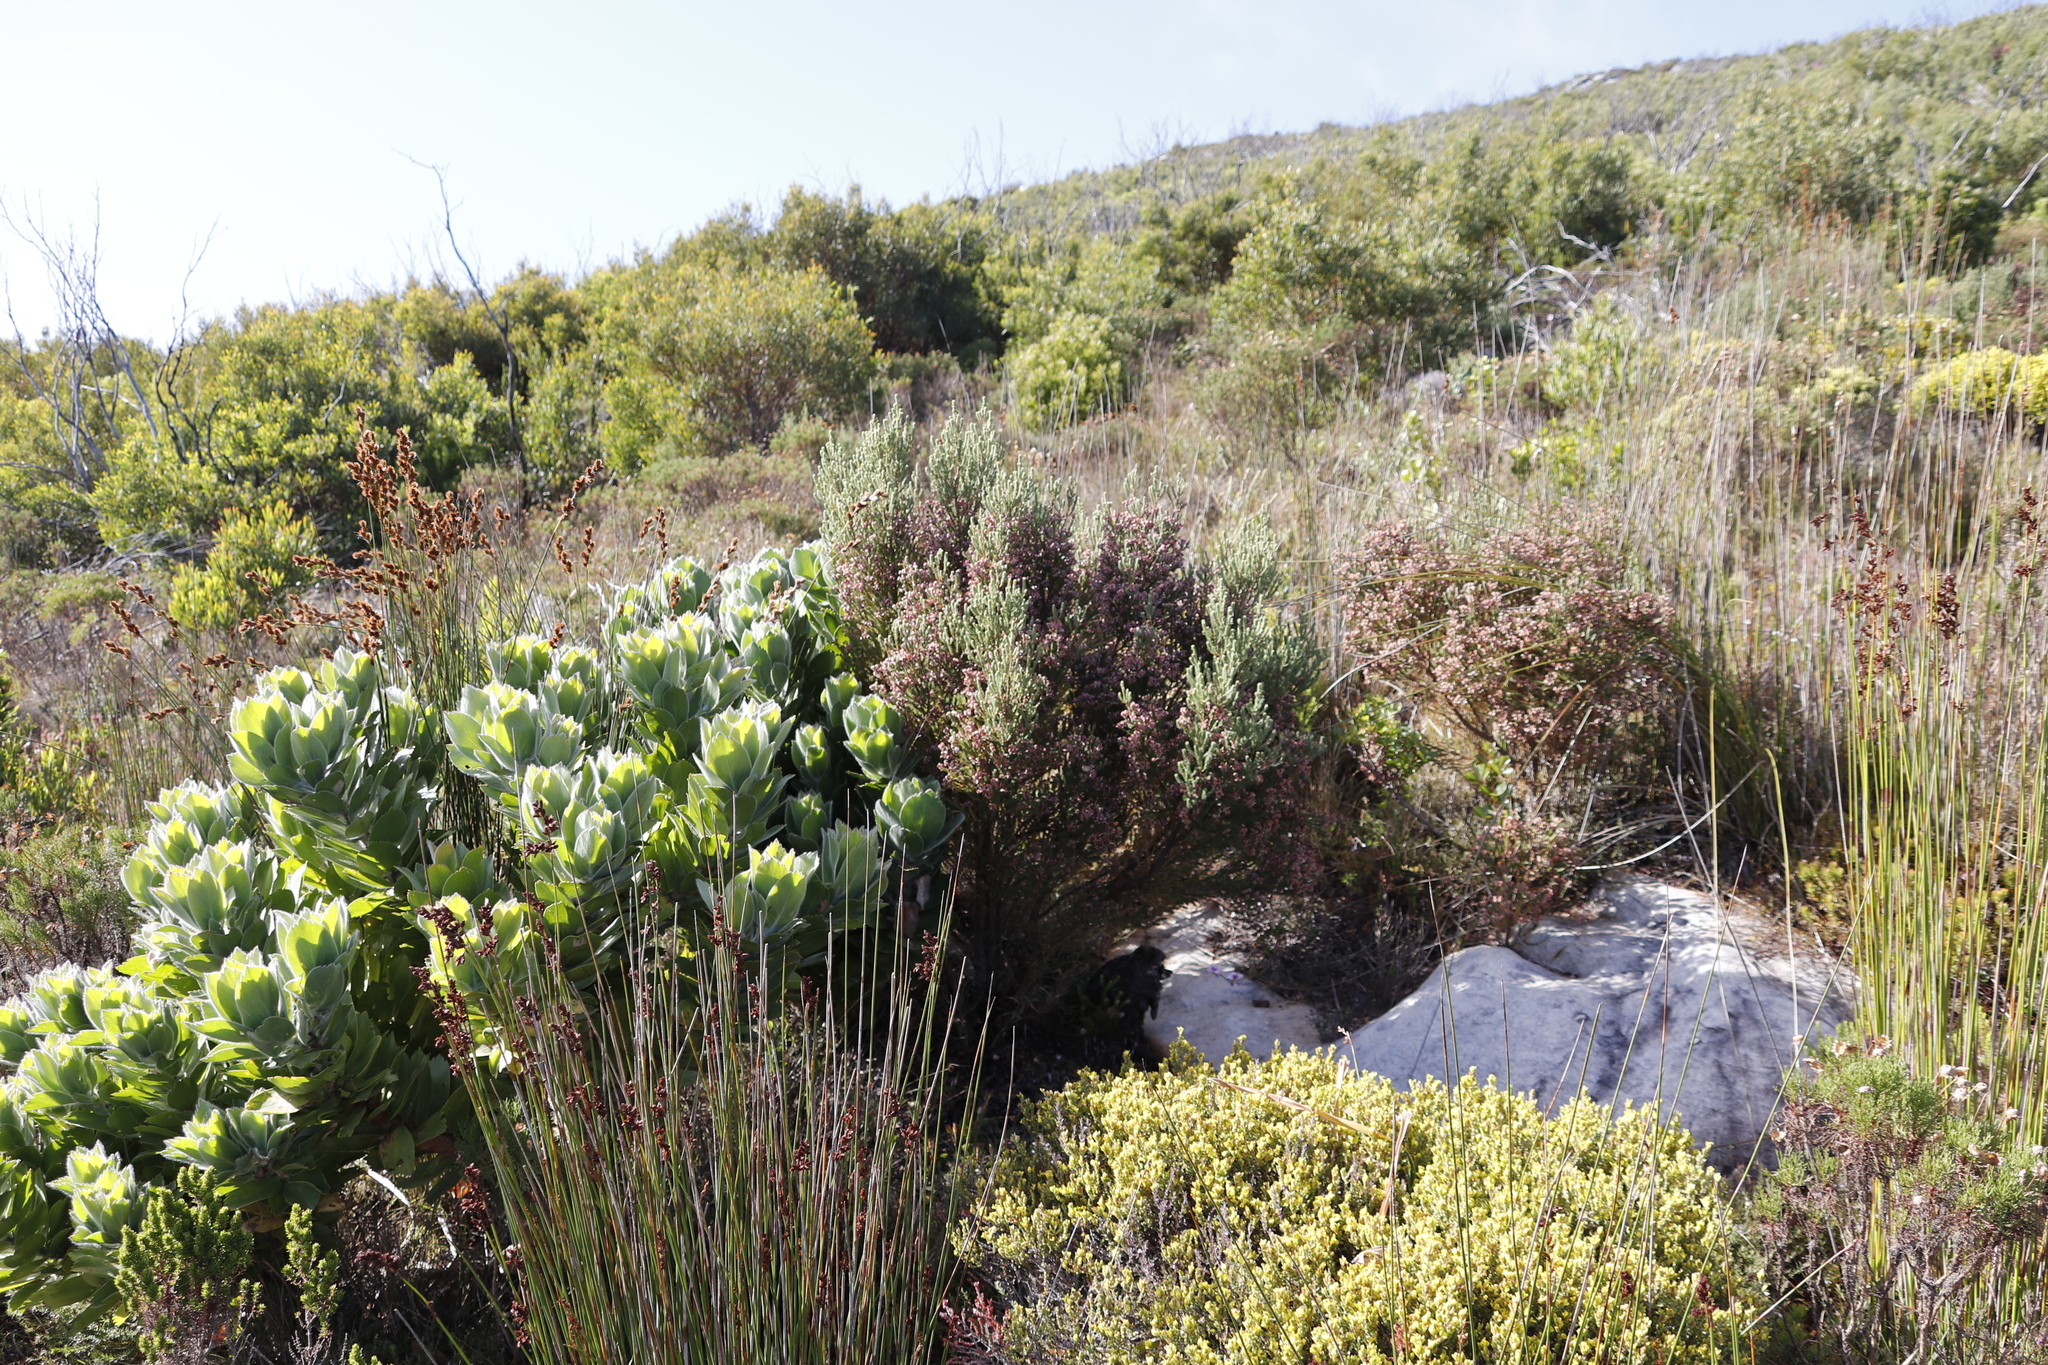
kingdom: Plantae
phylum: Tracheophyta
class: Magnoliopsida
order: Ericales
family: Ericaceae
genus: Erica
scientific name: Erica baccans
